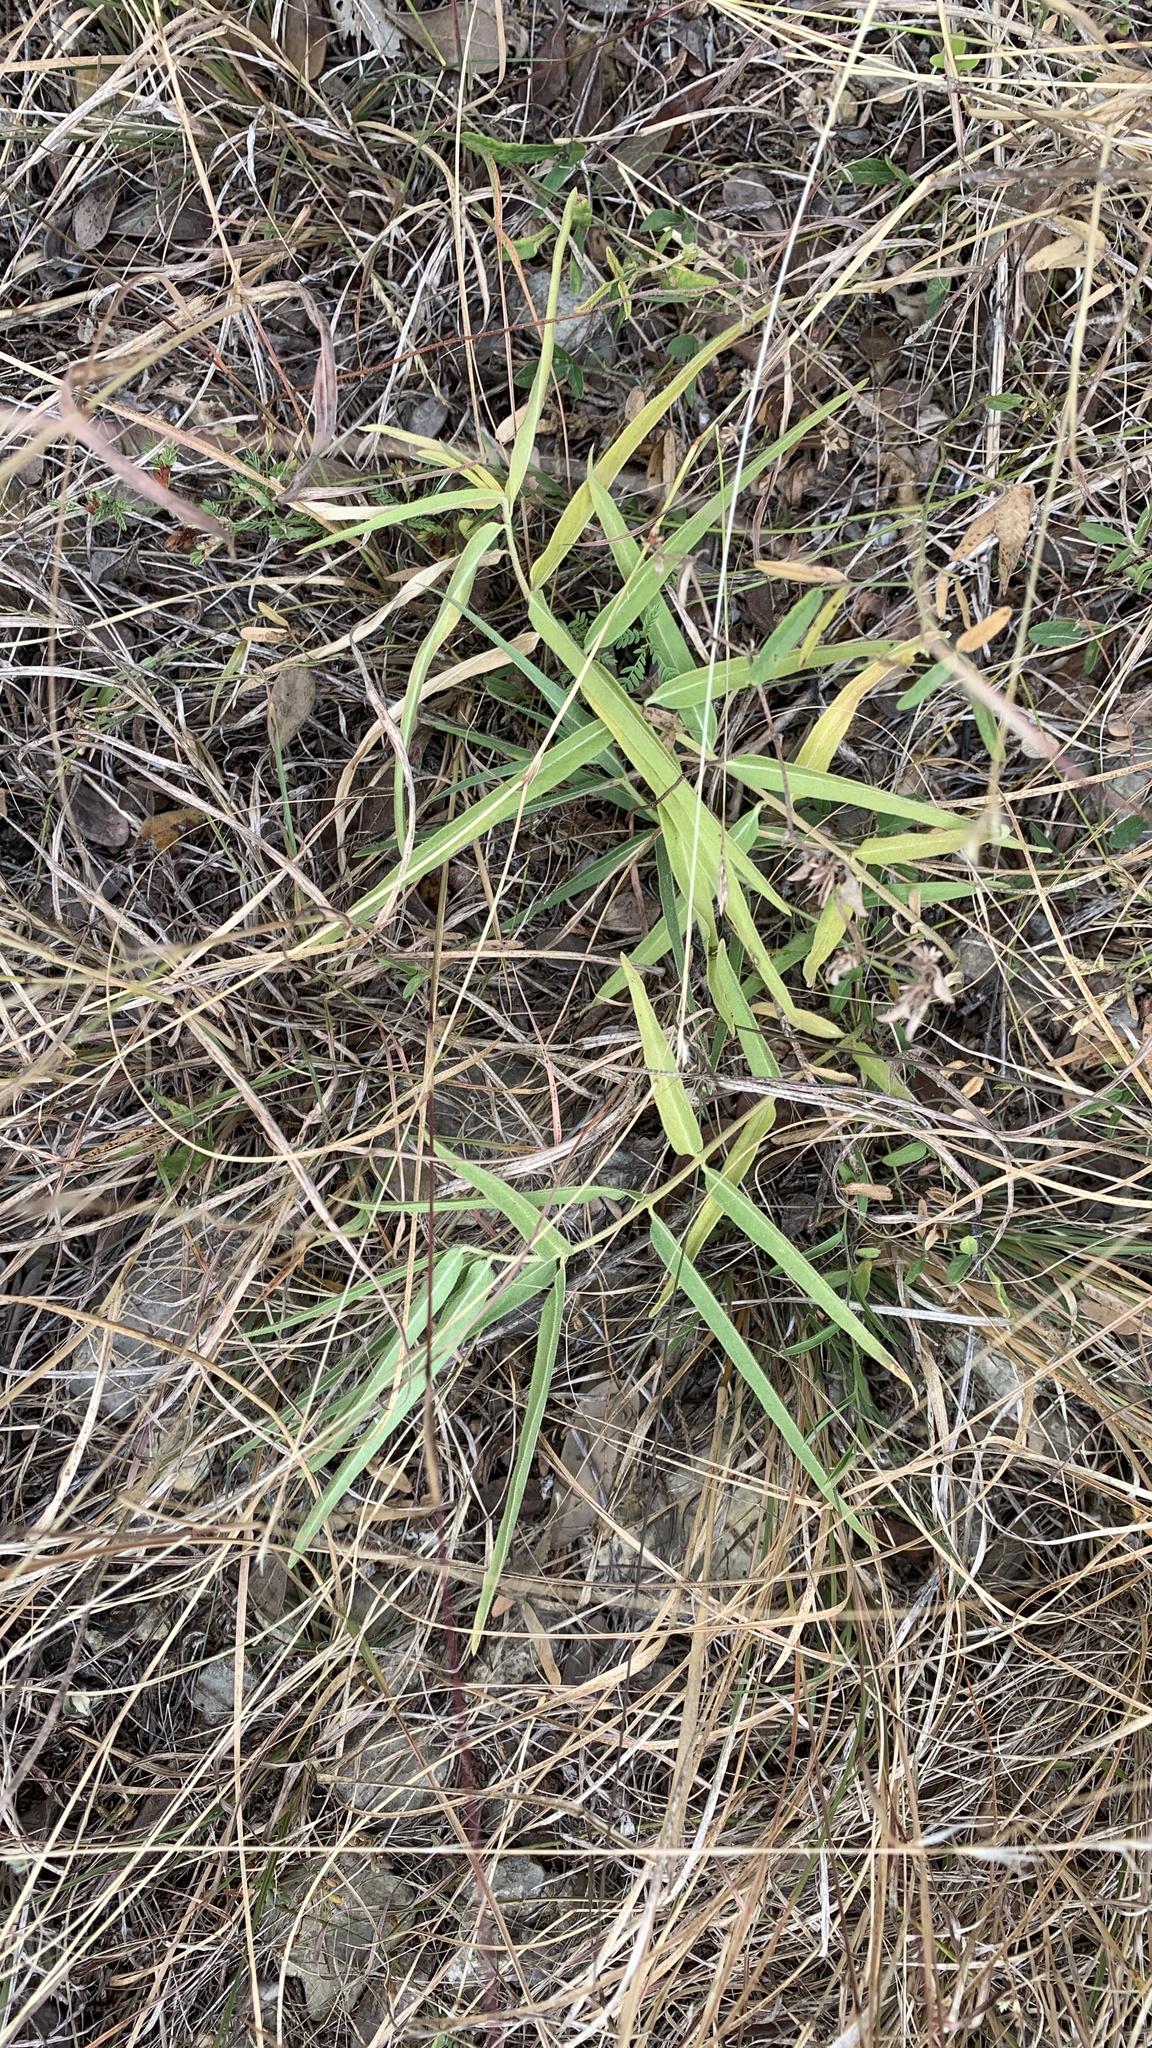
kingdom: Plantae
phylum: Tracheophyta
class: Magnoliopsida
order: Gentianales
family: Apocynaceae
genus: Asclepias
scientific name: Asclepias asperula
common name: Antelope horns
